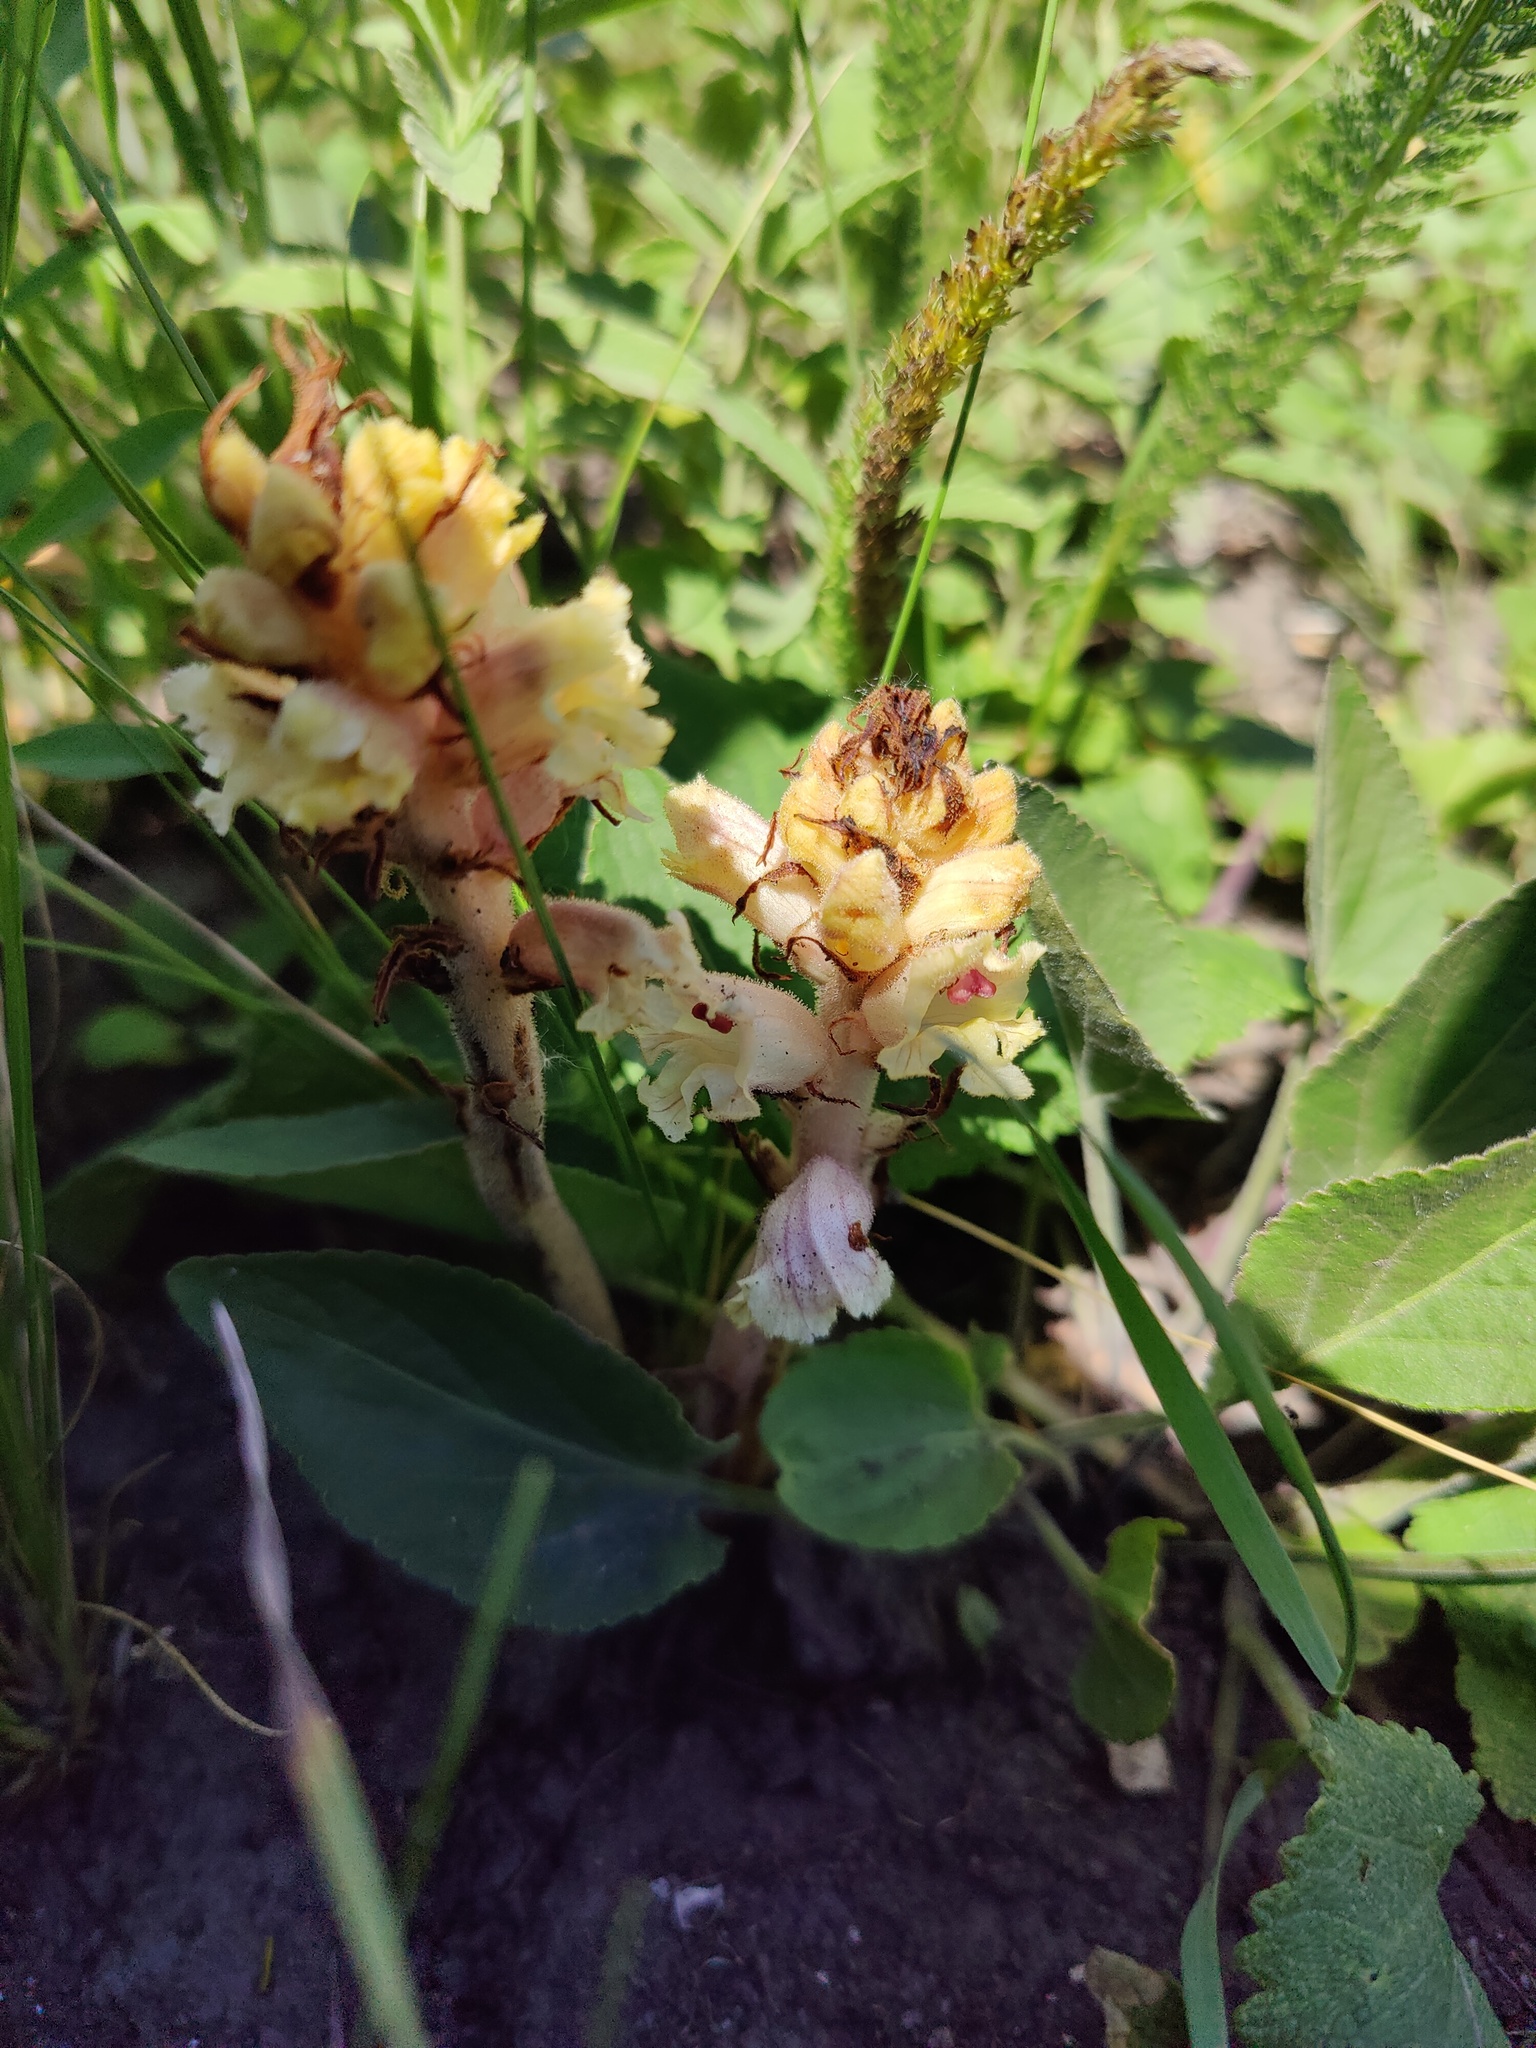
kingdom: Plantae
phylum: Tracheophyta
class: Magnoliopsida
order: Lamiales
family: Orobanchaceae
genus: Orobanche
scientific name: Orobanche alba
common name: Thyme broomrape
